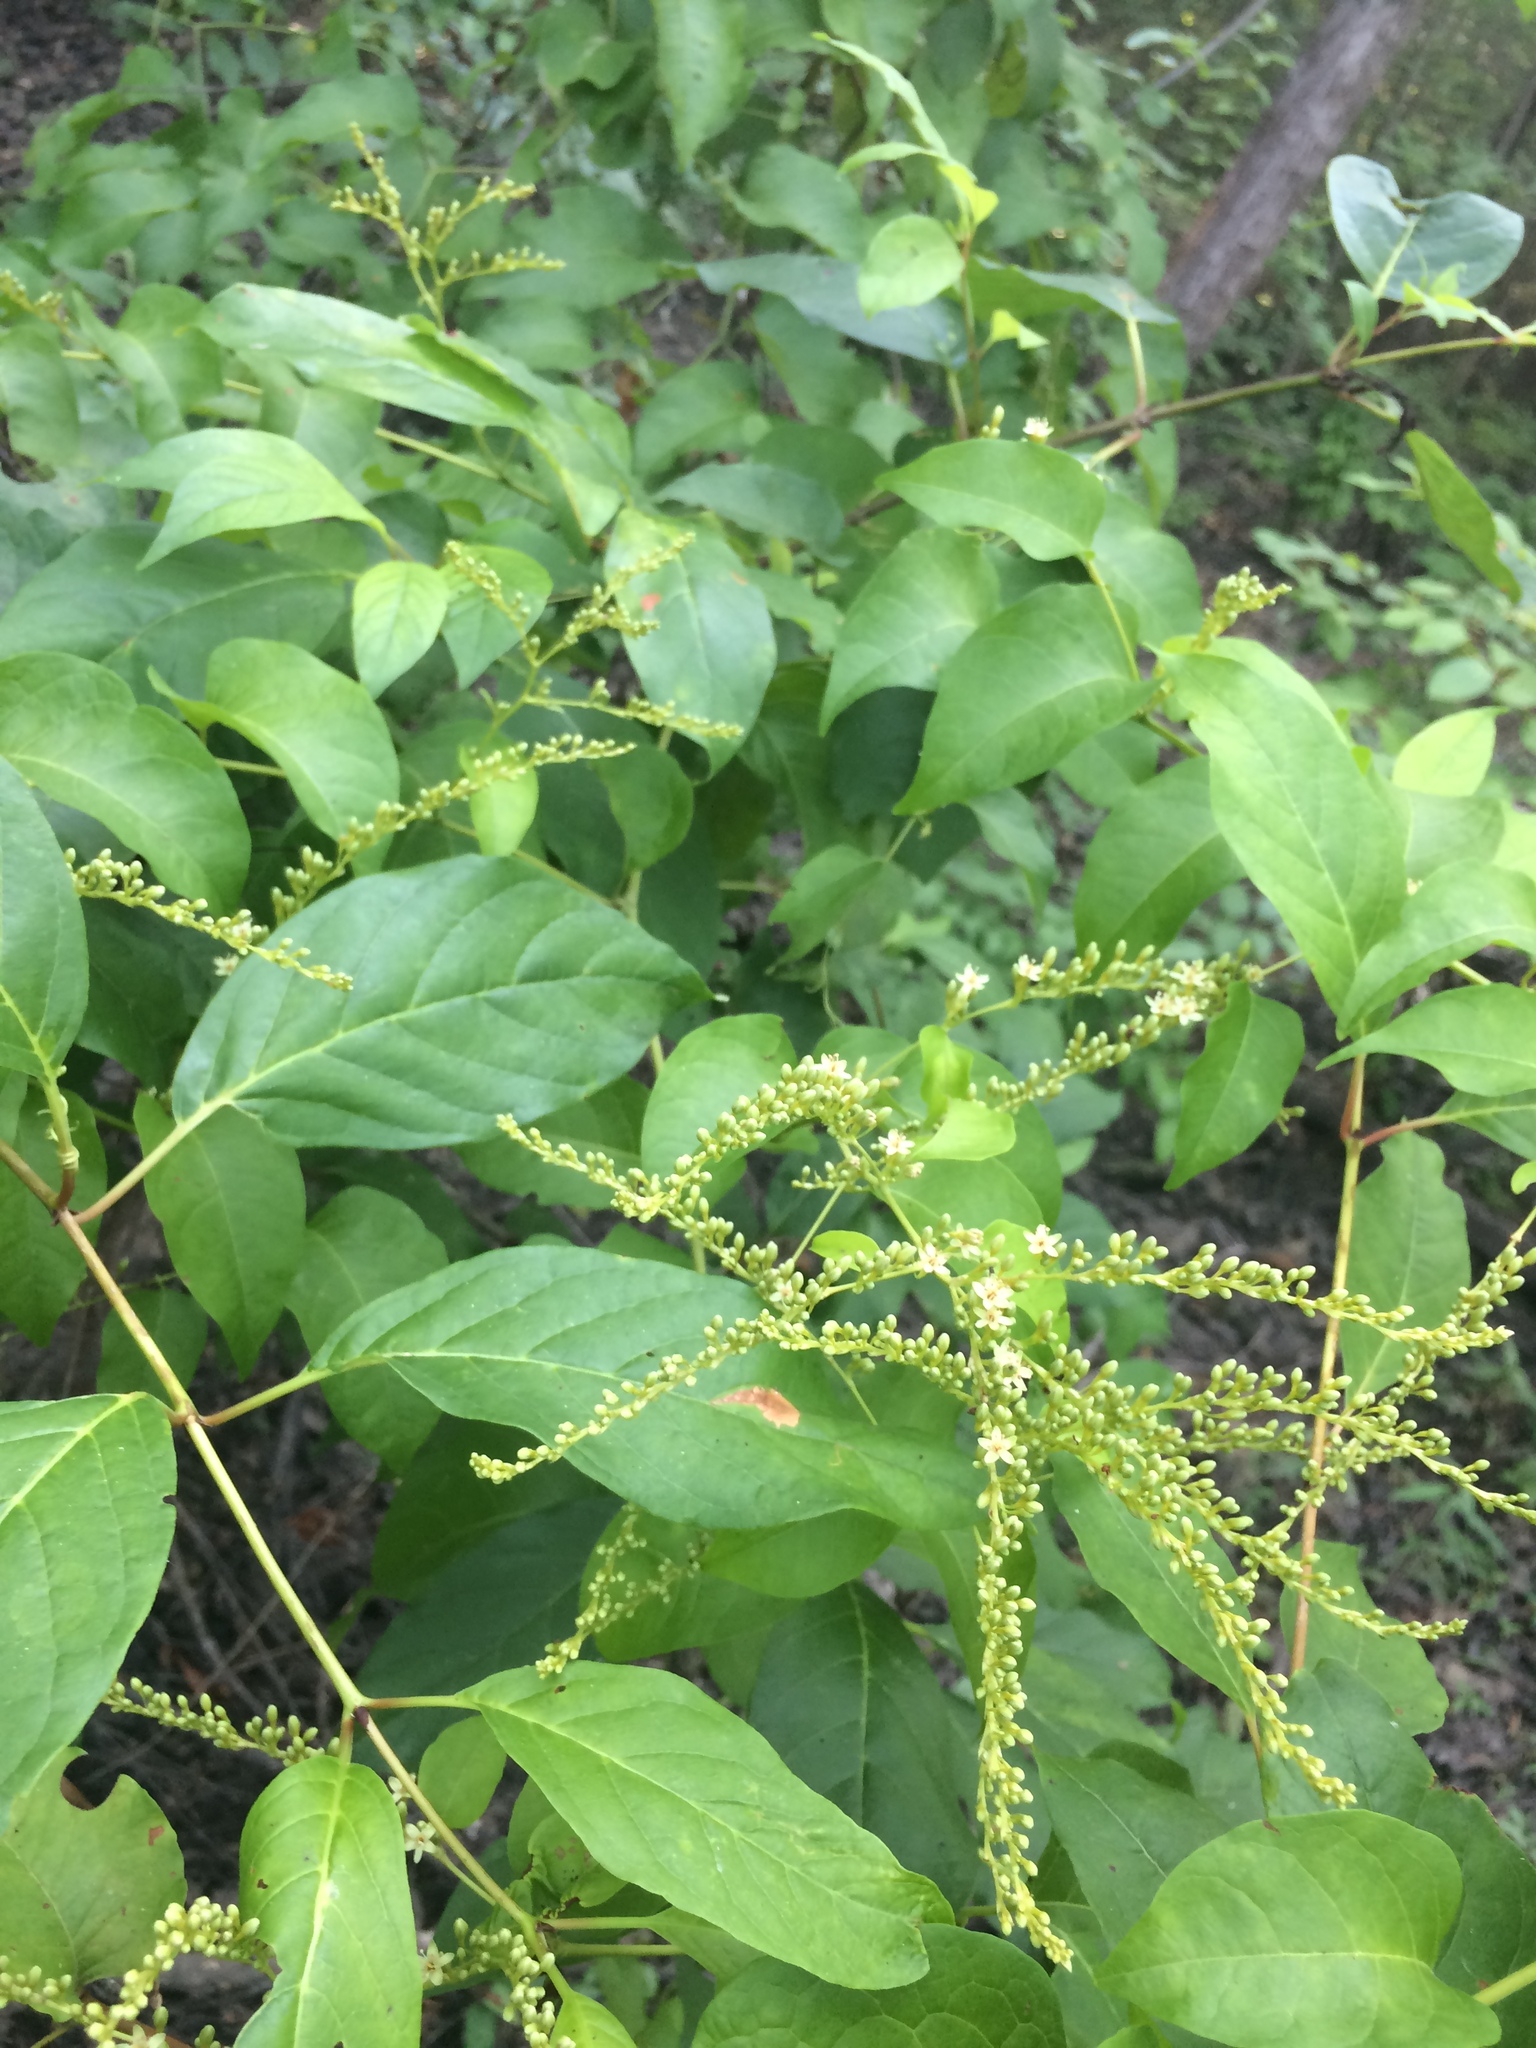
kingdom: Plantae
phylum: Tracheophyta
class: Magnoliopsida
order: Caryophyllales
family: Polygonaceae
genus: Brunnichia
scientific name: Brunnichia ovata
